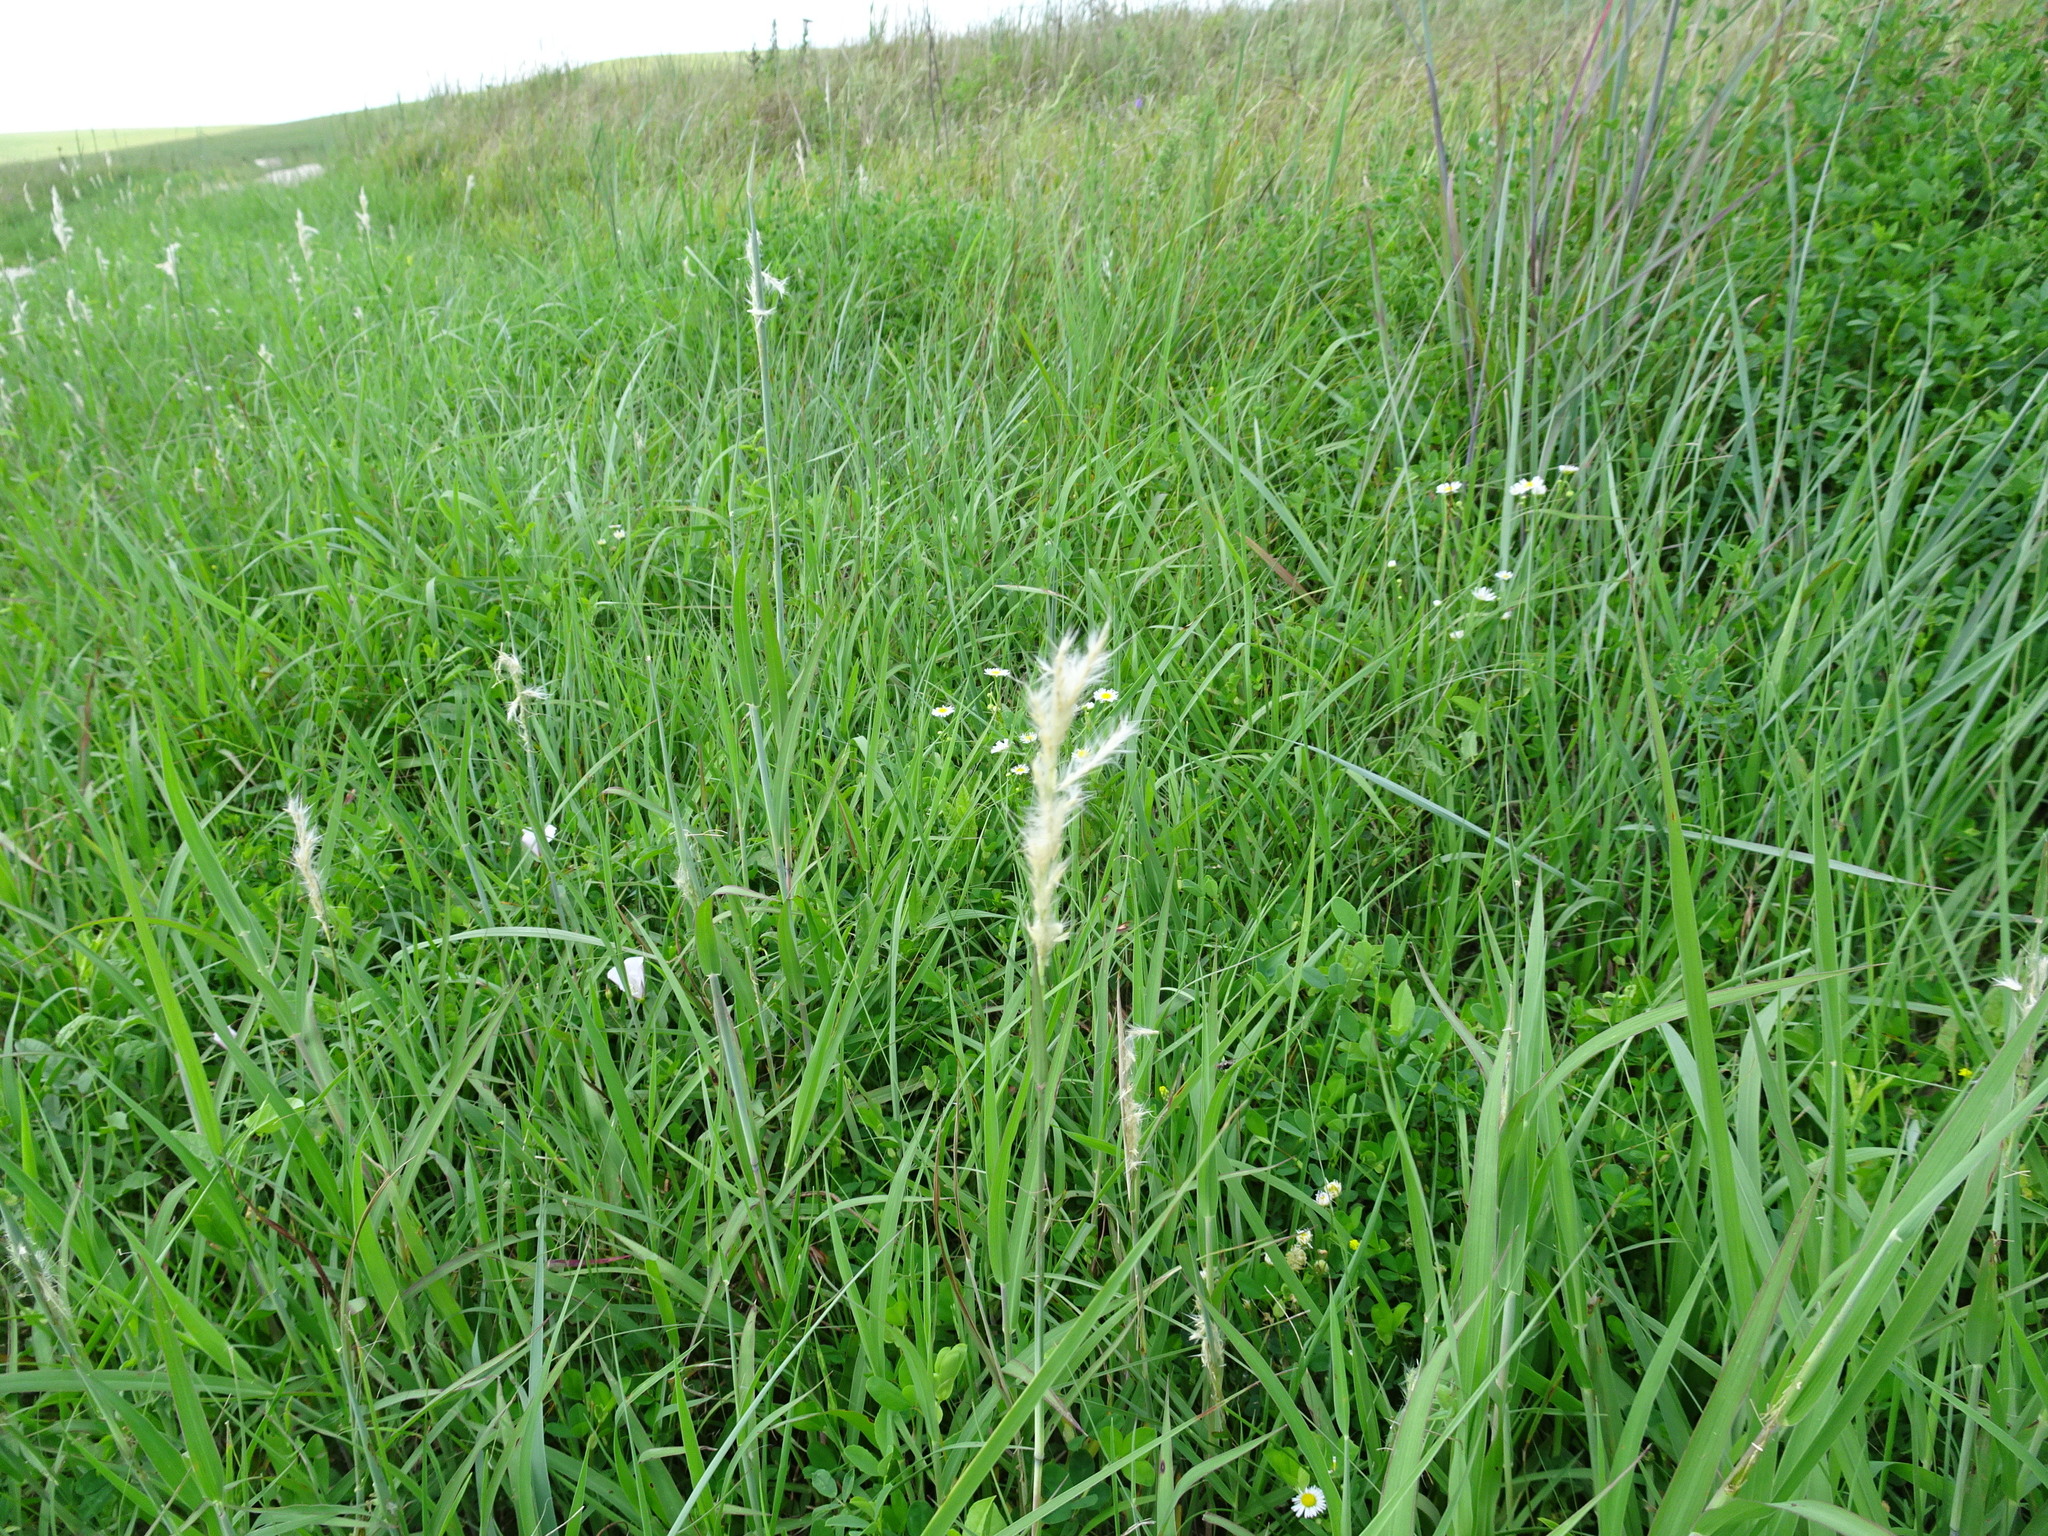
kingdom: Plantae
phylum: Tracheophyta
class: Liliopsida
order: Poales
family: Poaceae
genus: Bothriochloa
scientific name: Bothriochloa torreyana
